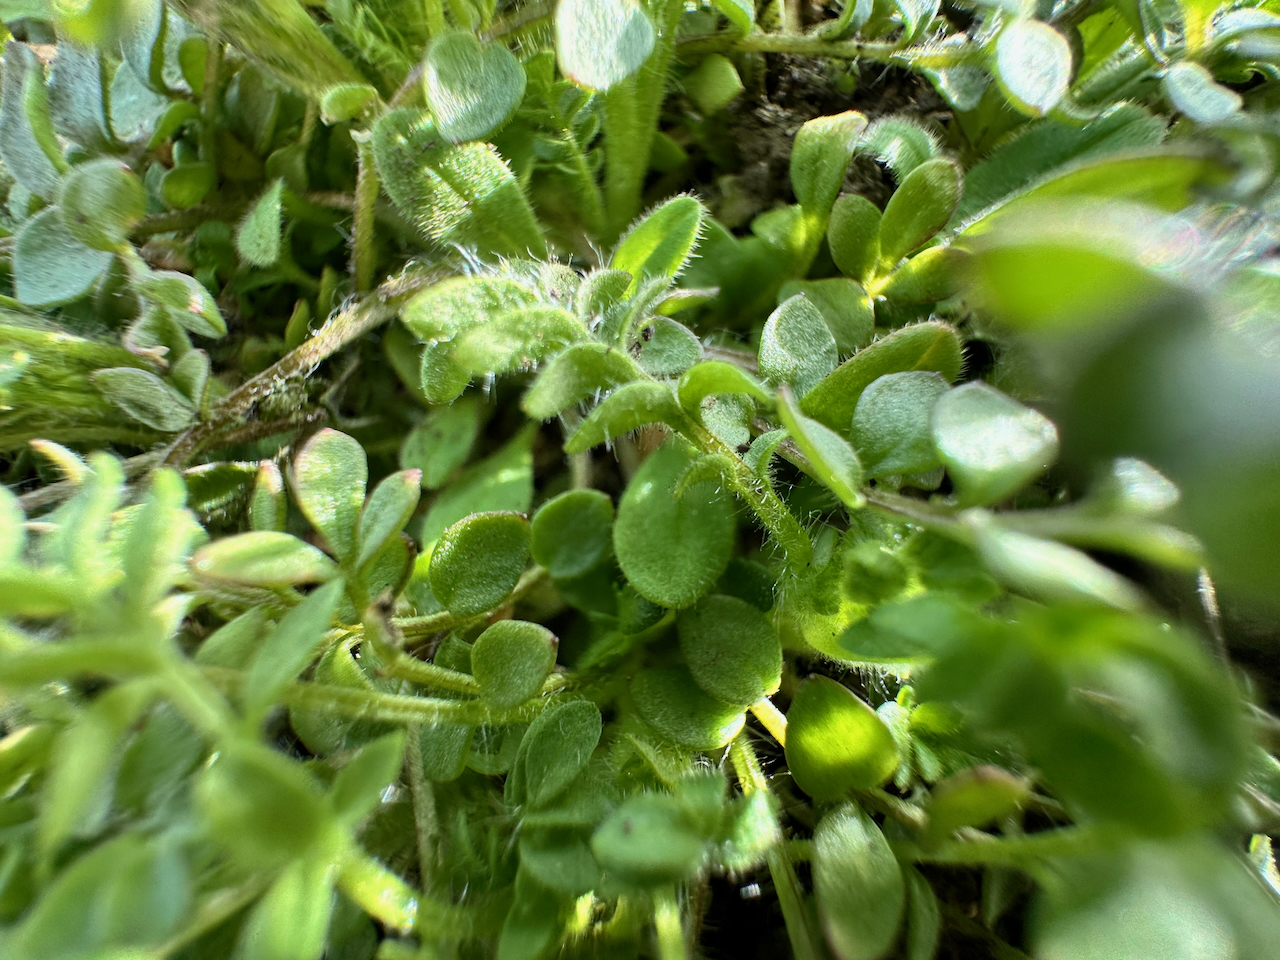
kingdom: Plantae
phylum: Tracheophyta
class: Magnoliopsida
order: Ericales
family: Polemoniaceae
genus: Polemonium
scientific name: Polemonium micranthum
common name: Annual jacob's-ladder
